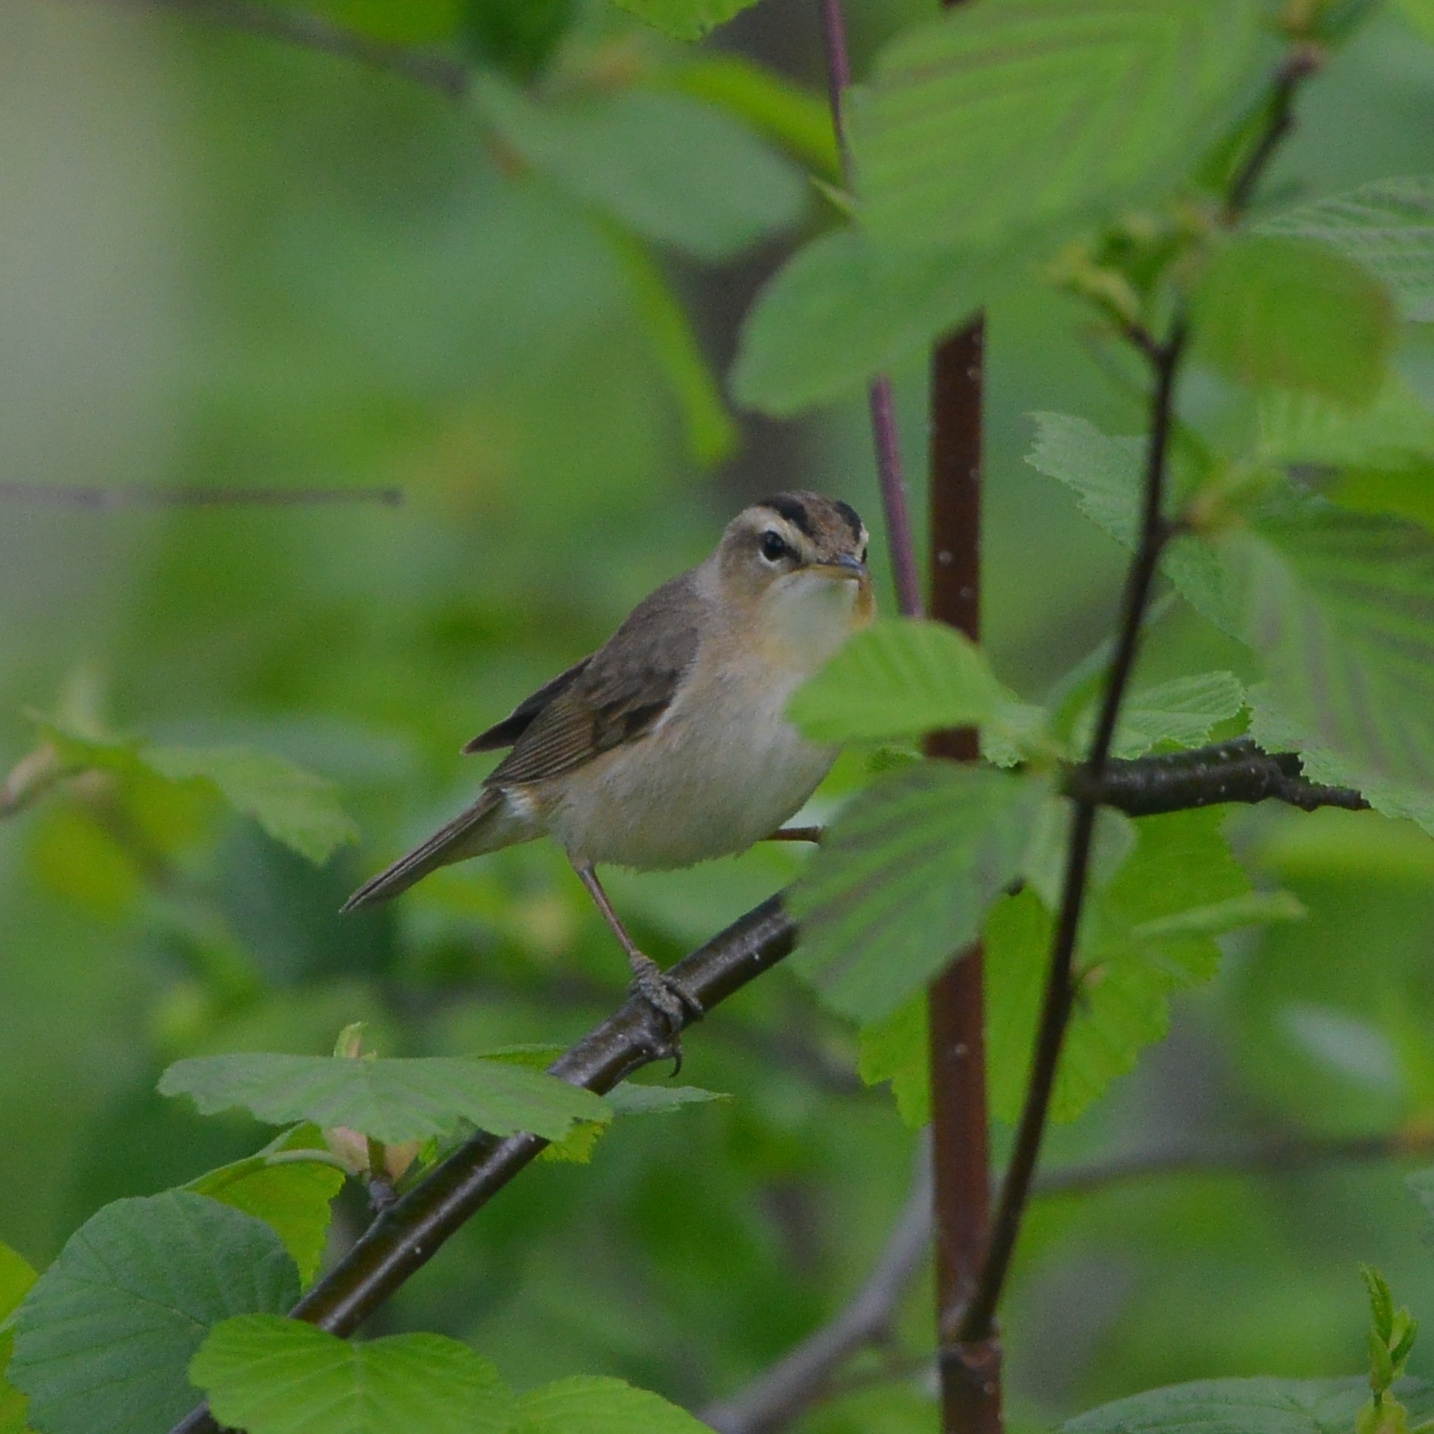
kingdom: Animalia
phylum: Chordata
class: Aves
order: Passeriformes
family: Acrocephalidae
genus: Acrocephalus
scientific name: Acrocephalus bistrigiceps
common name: Black-browed reed warbler
